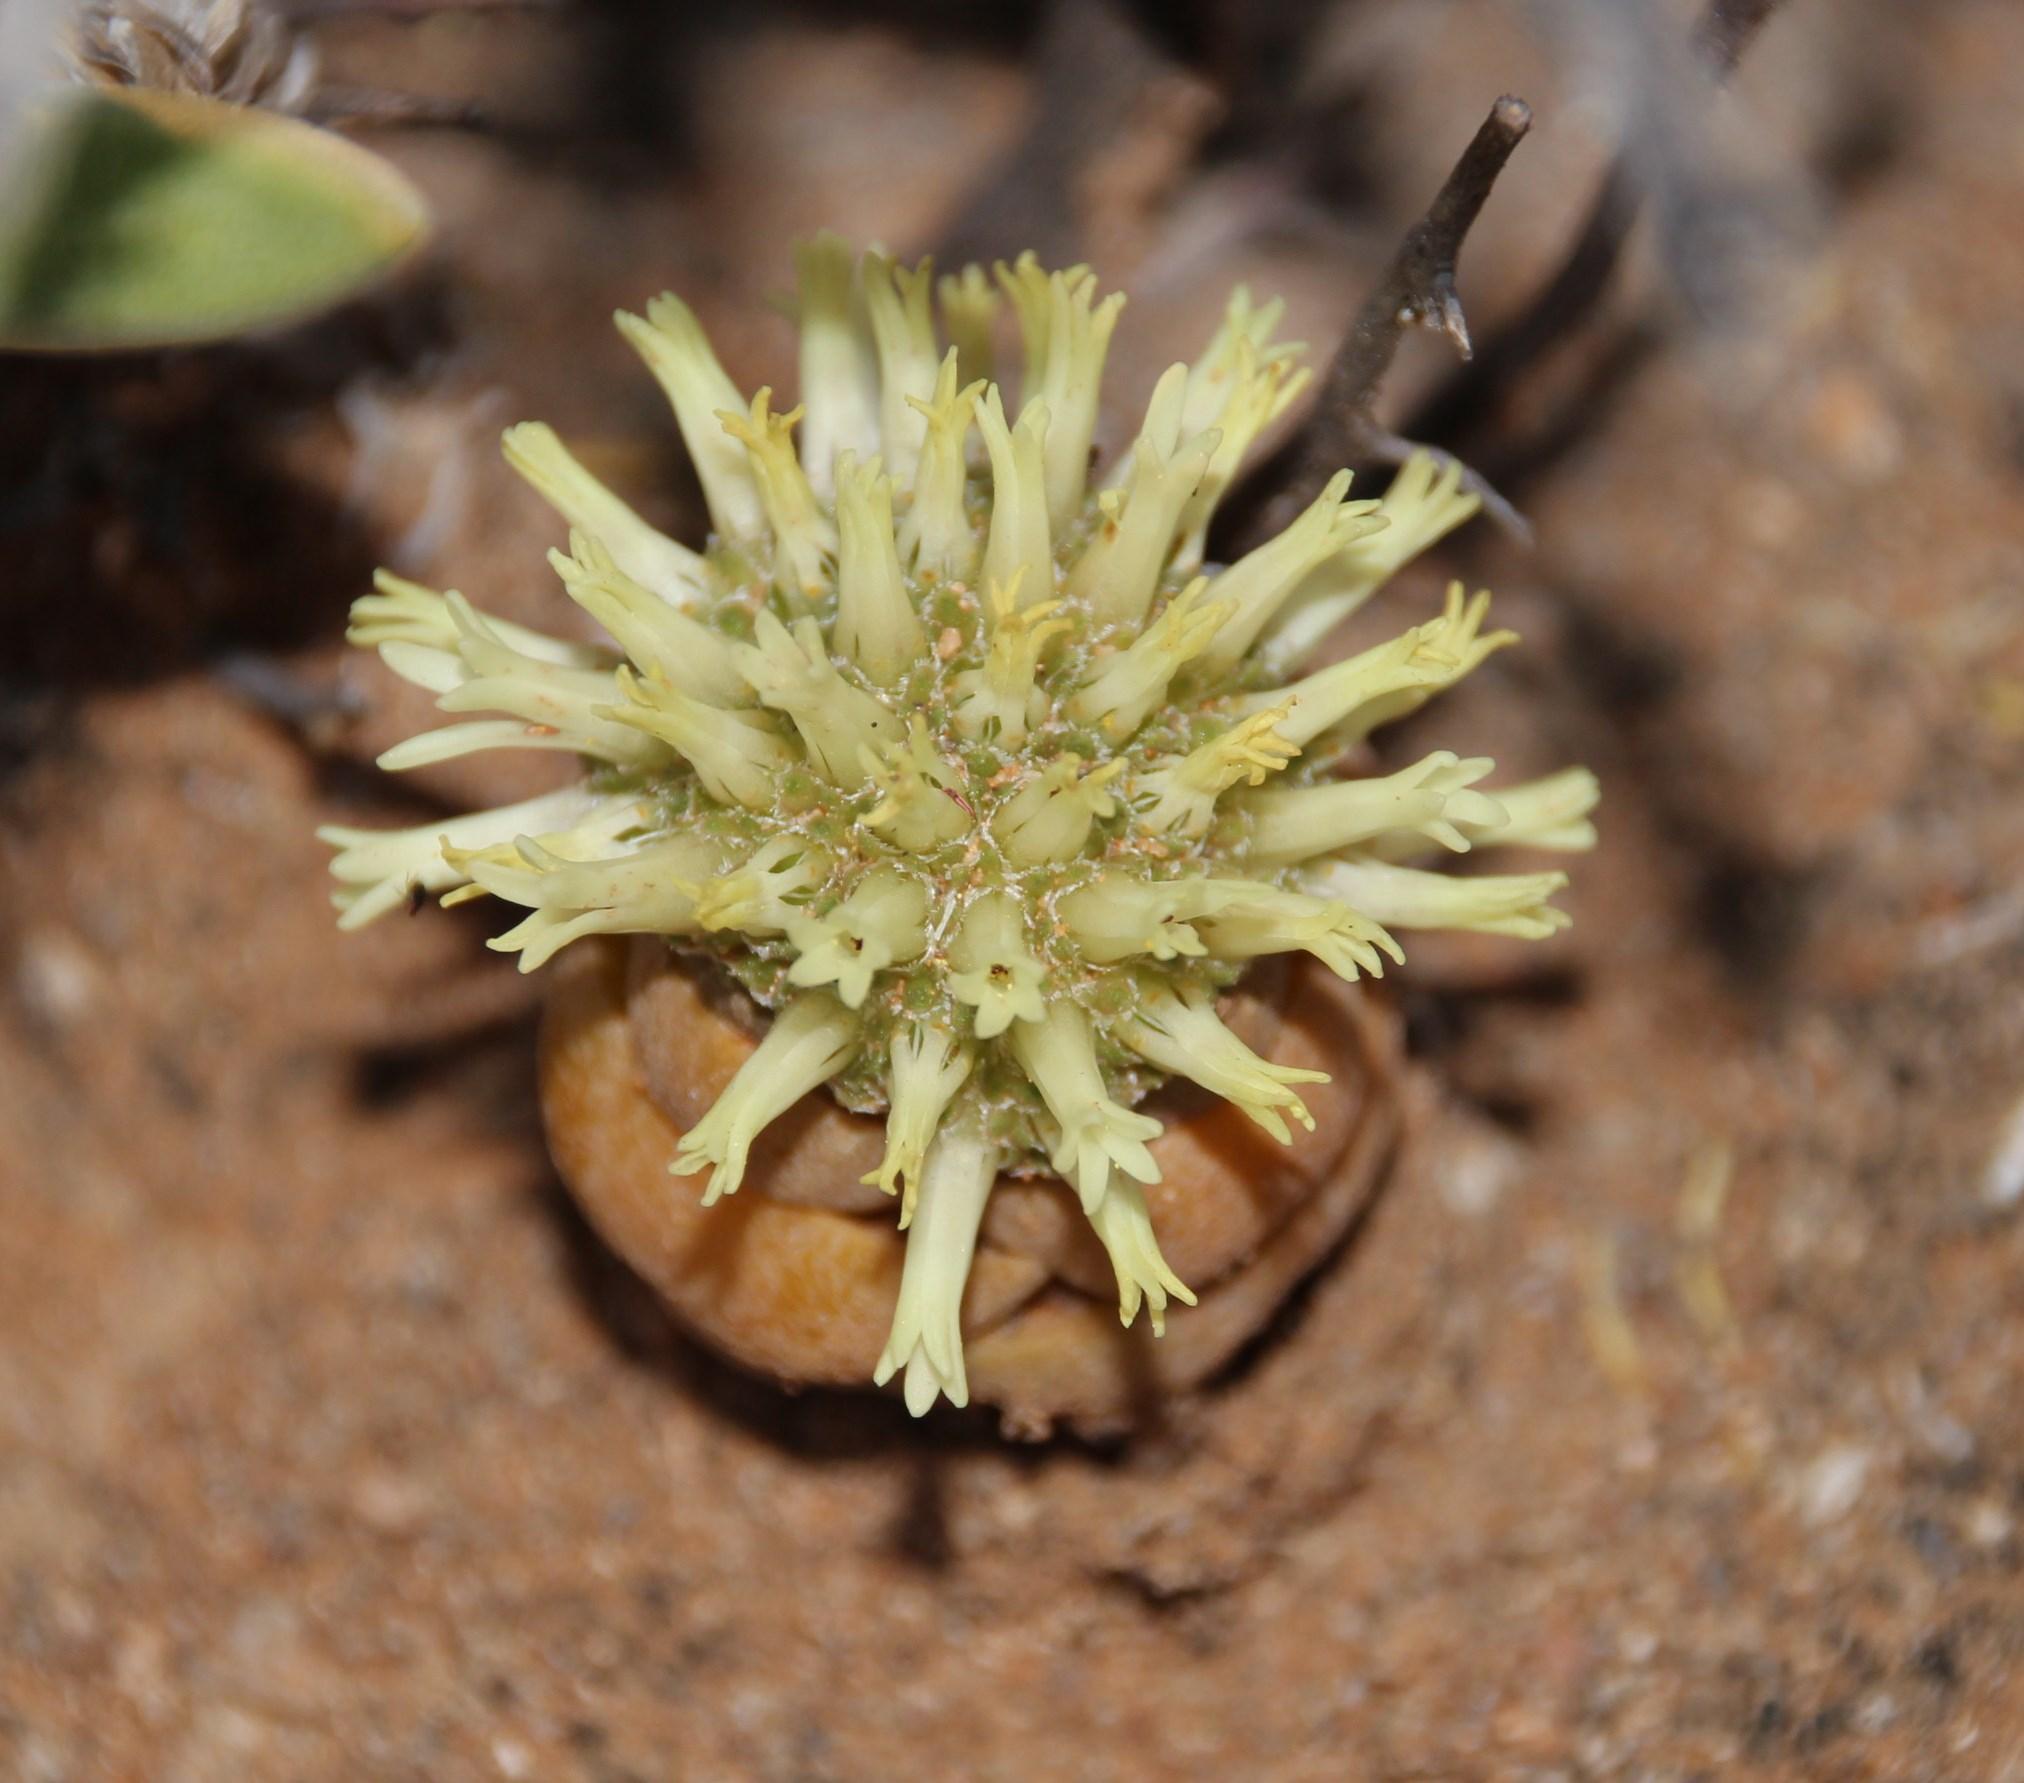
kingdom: Plantae
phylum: Tracheophyta
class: Magnoliopsida
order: Saxifragales
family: Crassulaceae
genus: Crassula
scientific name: Crassula columnaris
